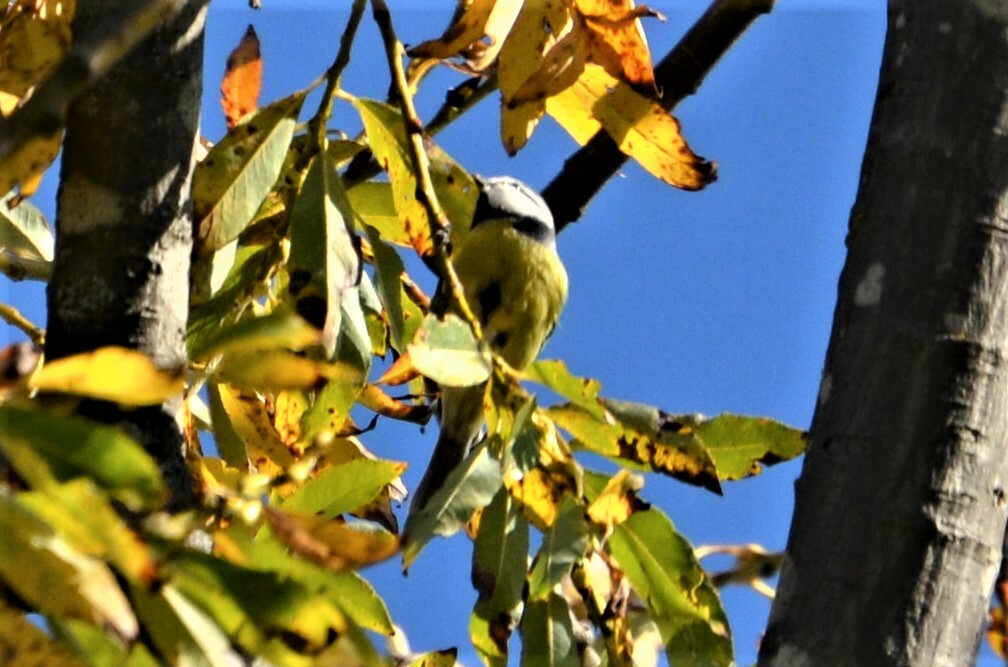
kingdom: Animalia
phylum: Chordata
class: Aves
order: Passeriformes
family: Paridae
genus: Cyanistes
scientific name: Cyanistes caeruleus
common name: Eurasian blue tit
